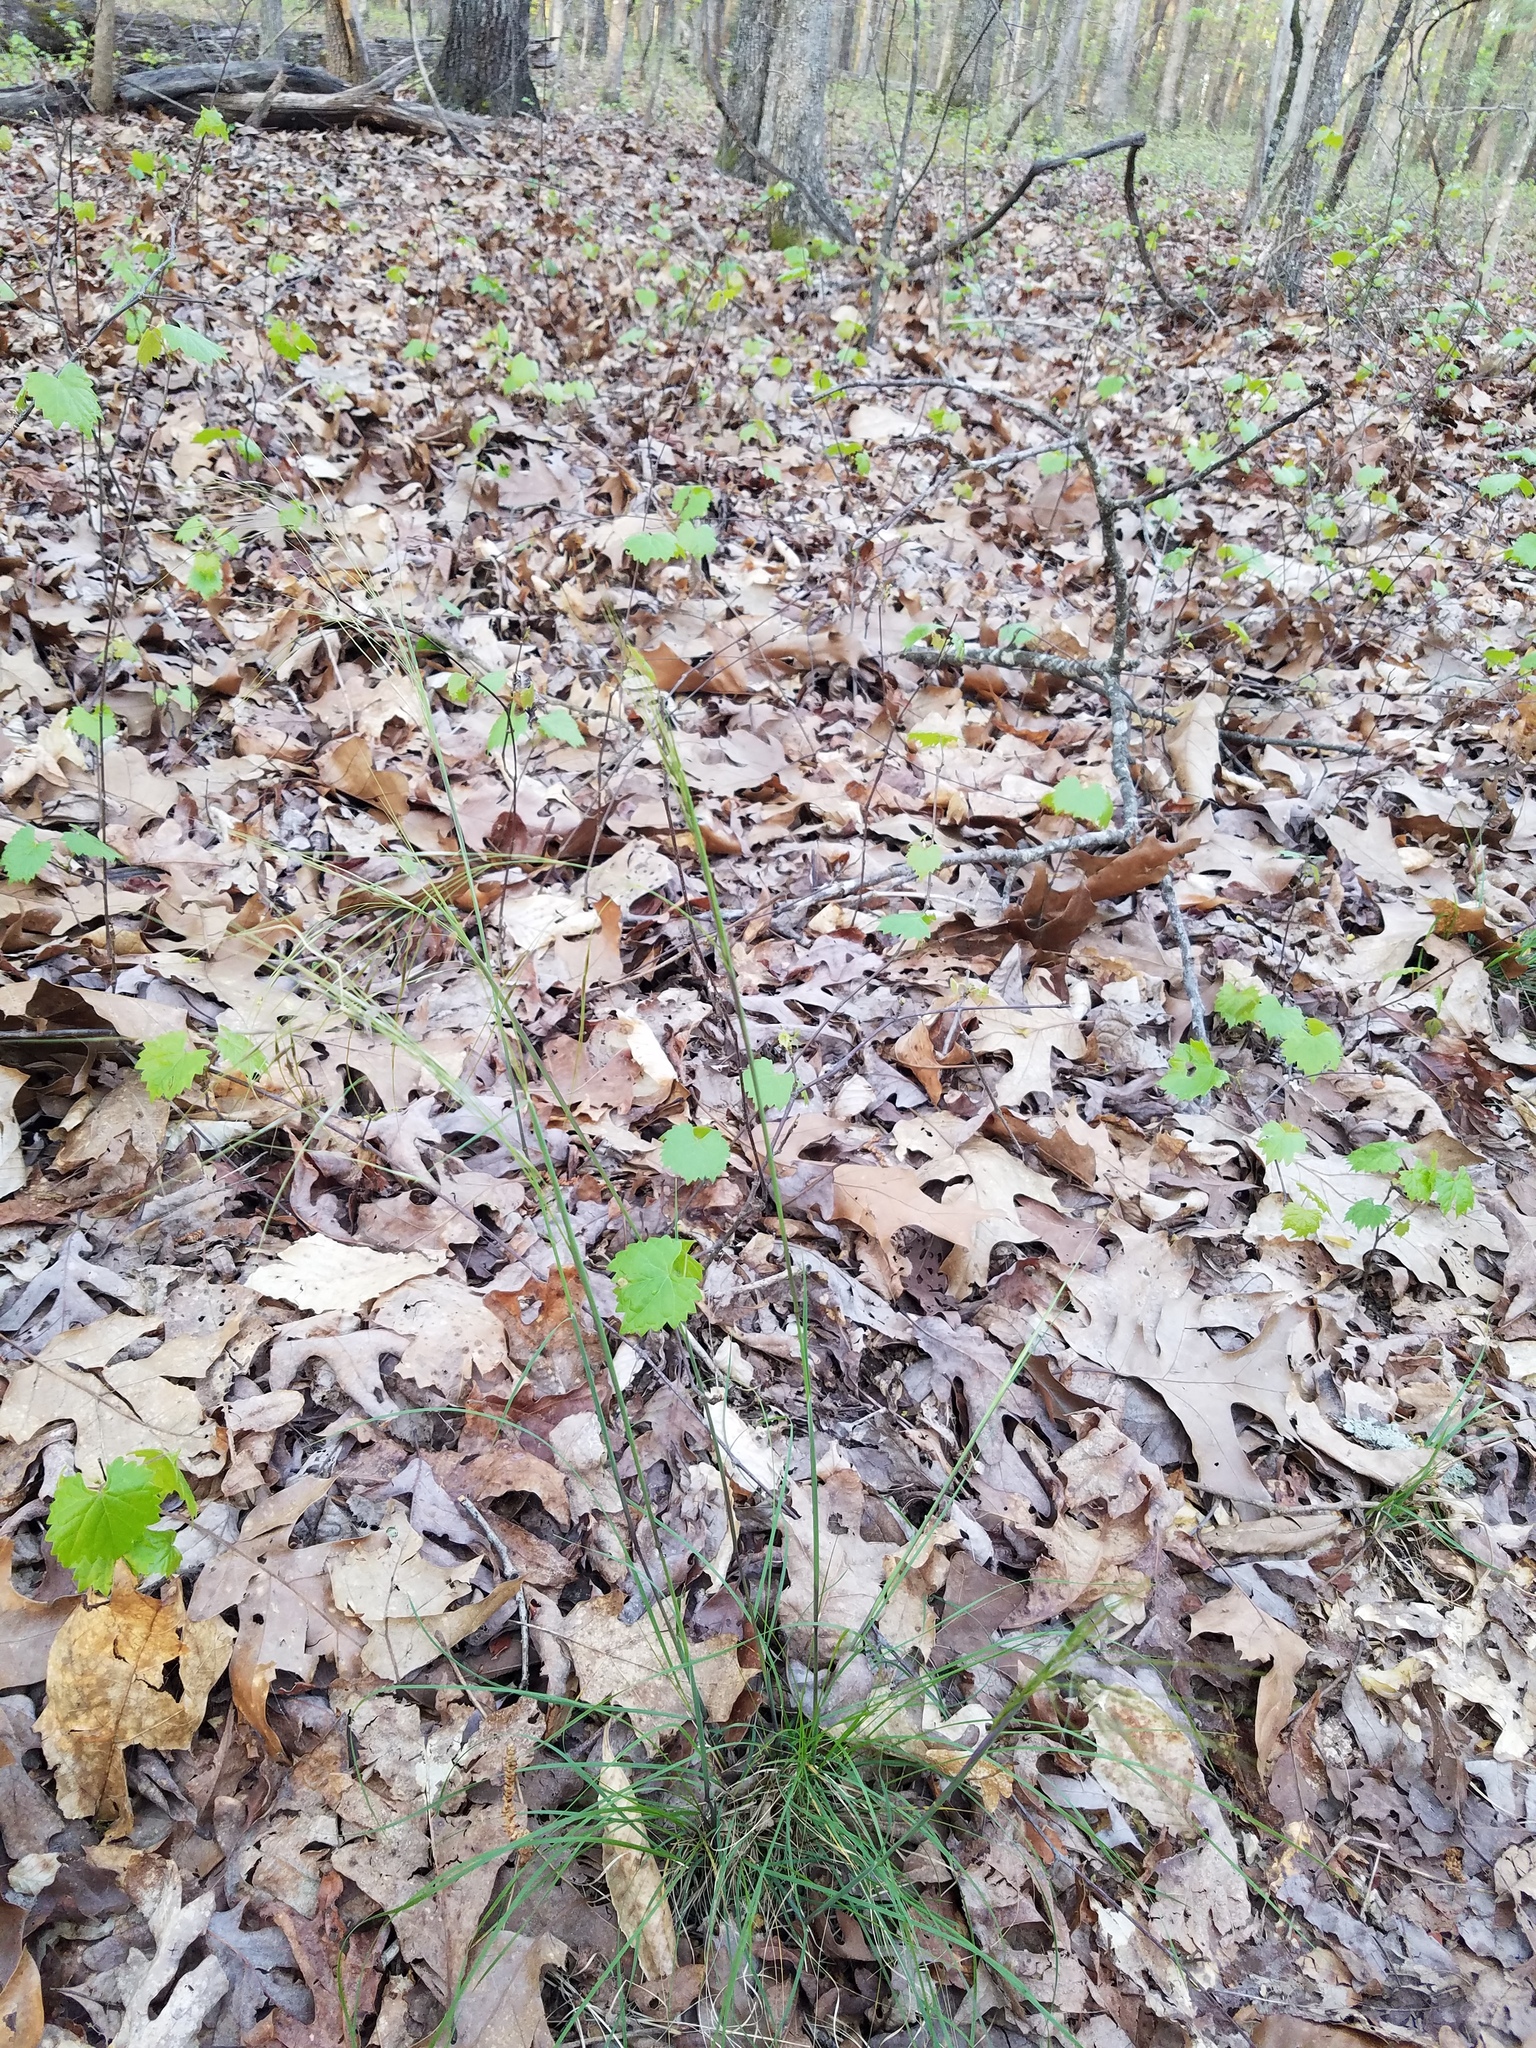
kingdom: Plantae
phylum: Tracheophyta
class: Liliopsida
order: Poales
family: Poaceae
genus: Piptochaetium
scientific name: Piptochaetium avenaceum
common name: Black bunchgrass
